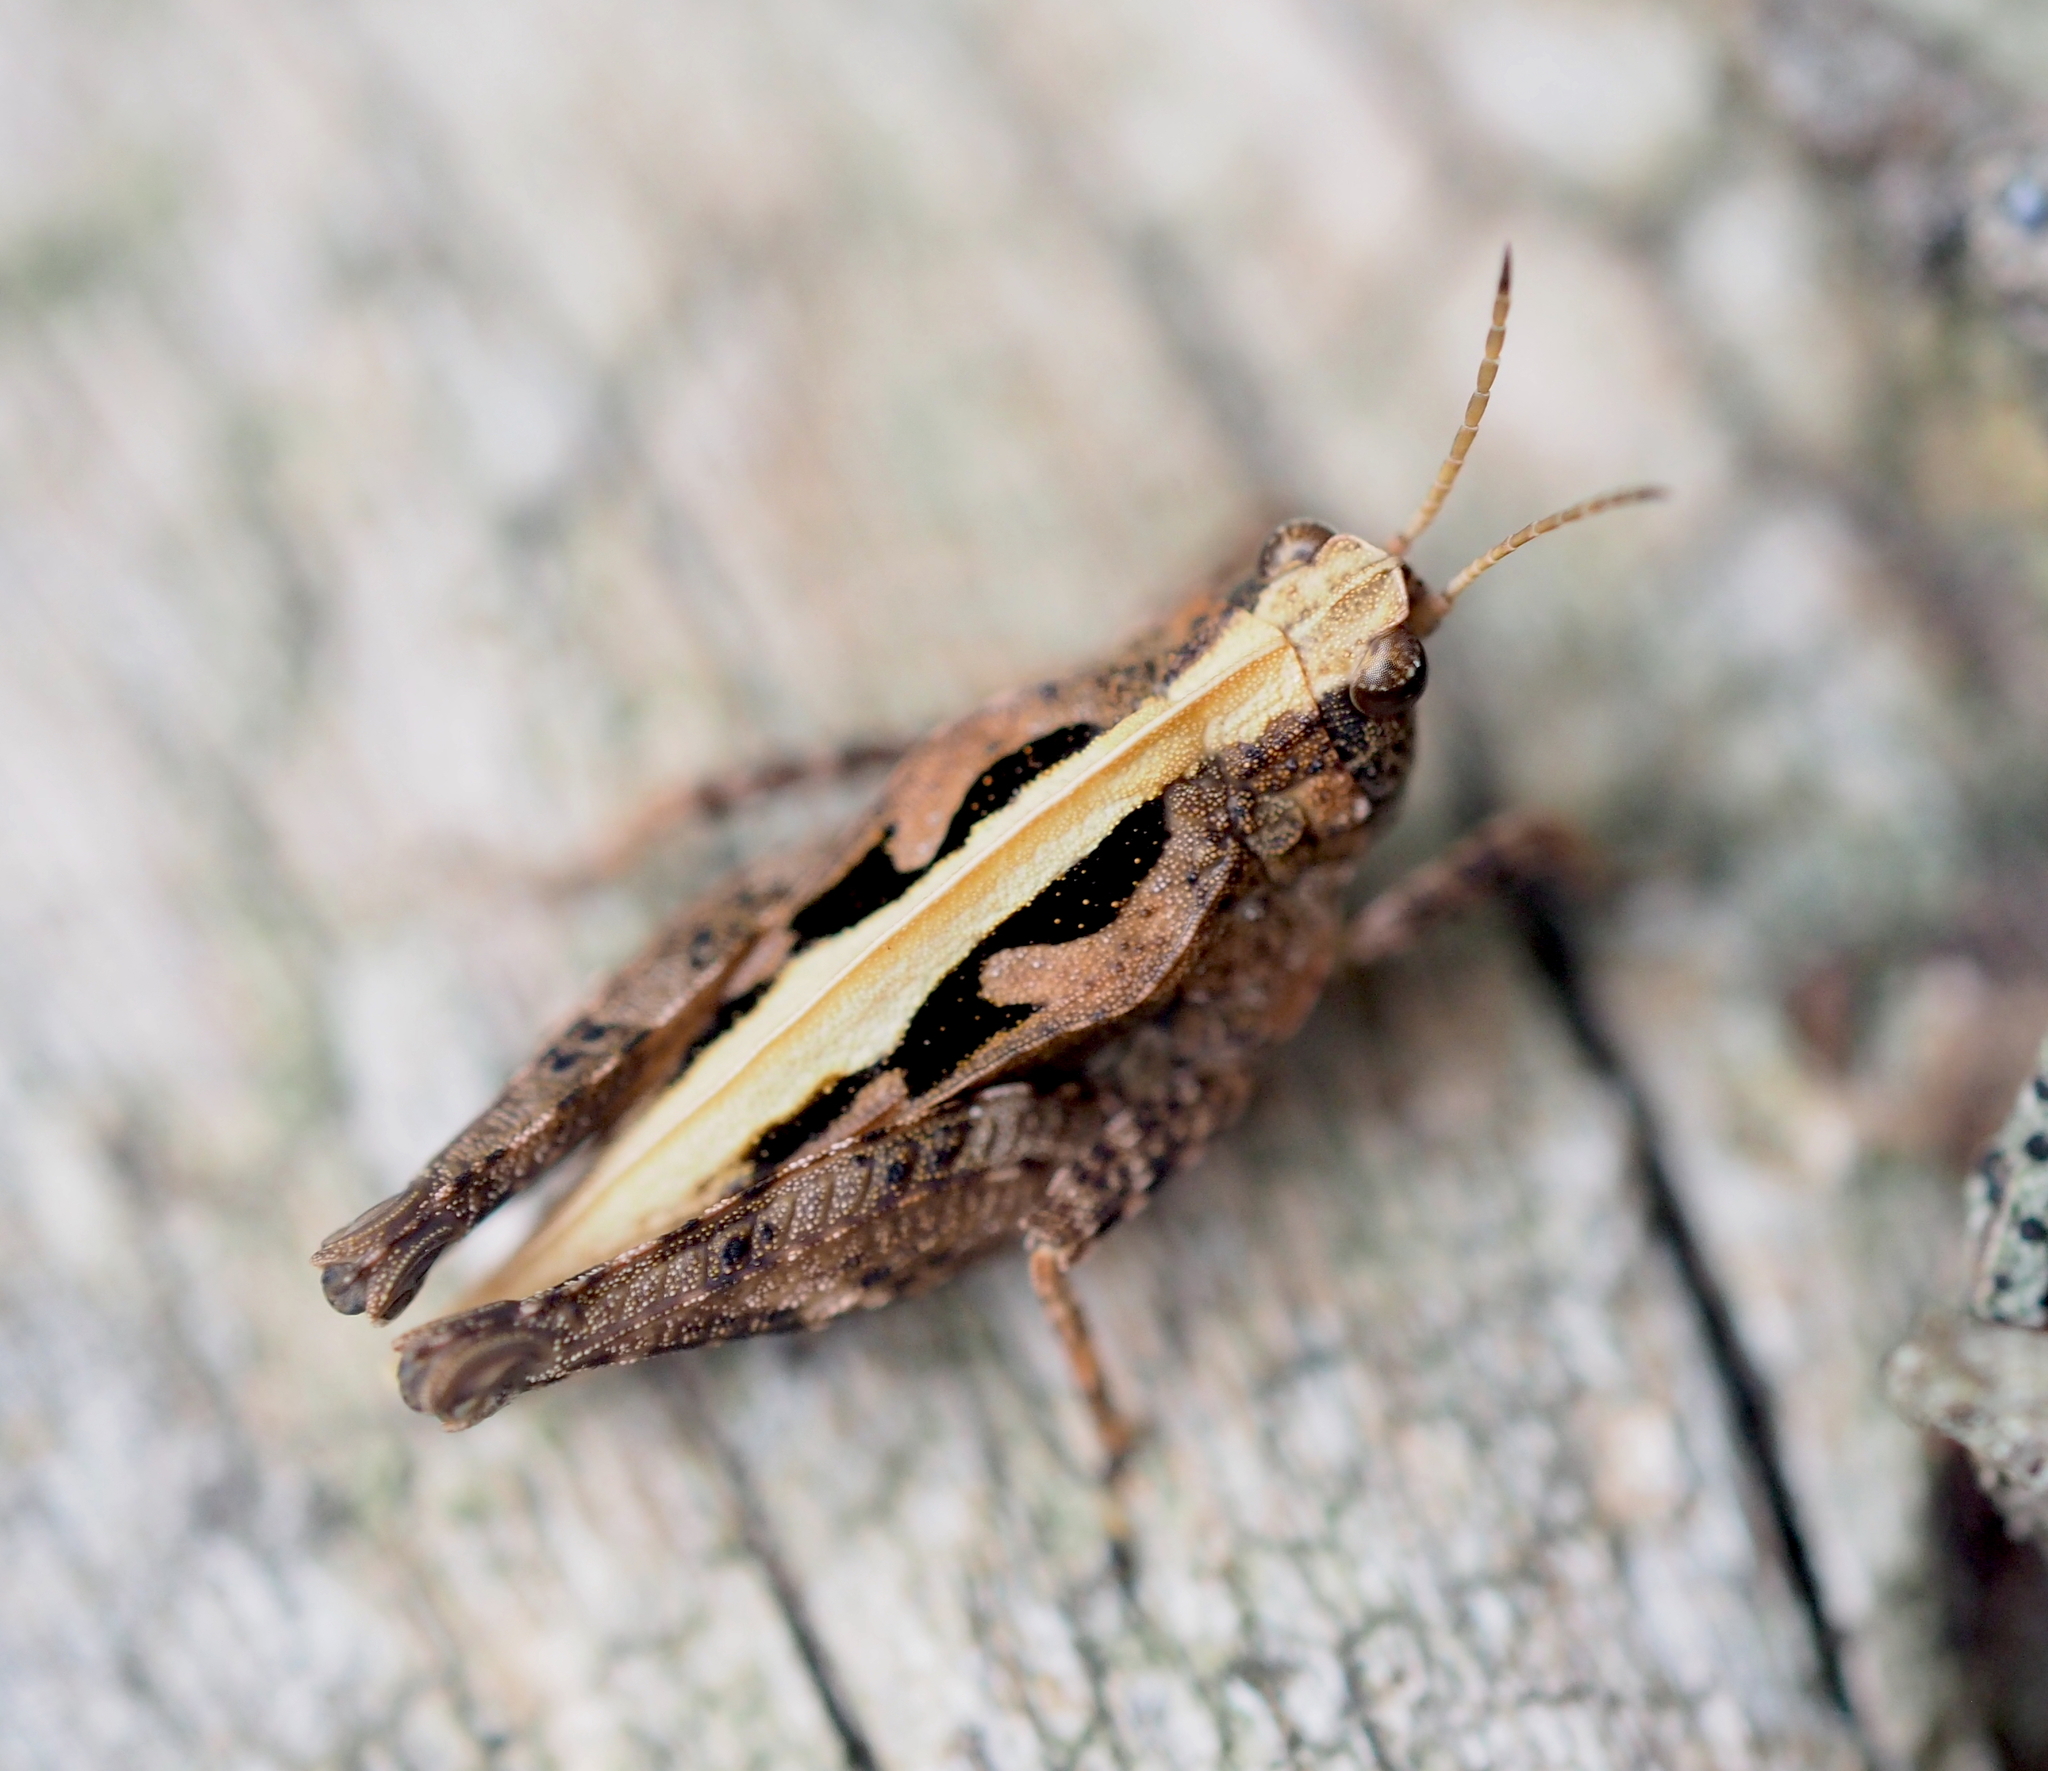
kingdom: Animalia
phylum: Arthropoda
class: Insecta
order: Orthoptera
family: Tetrigidae
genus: Tetrix
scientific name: Tetrix undulata
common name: Common groundhopper
